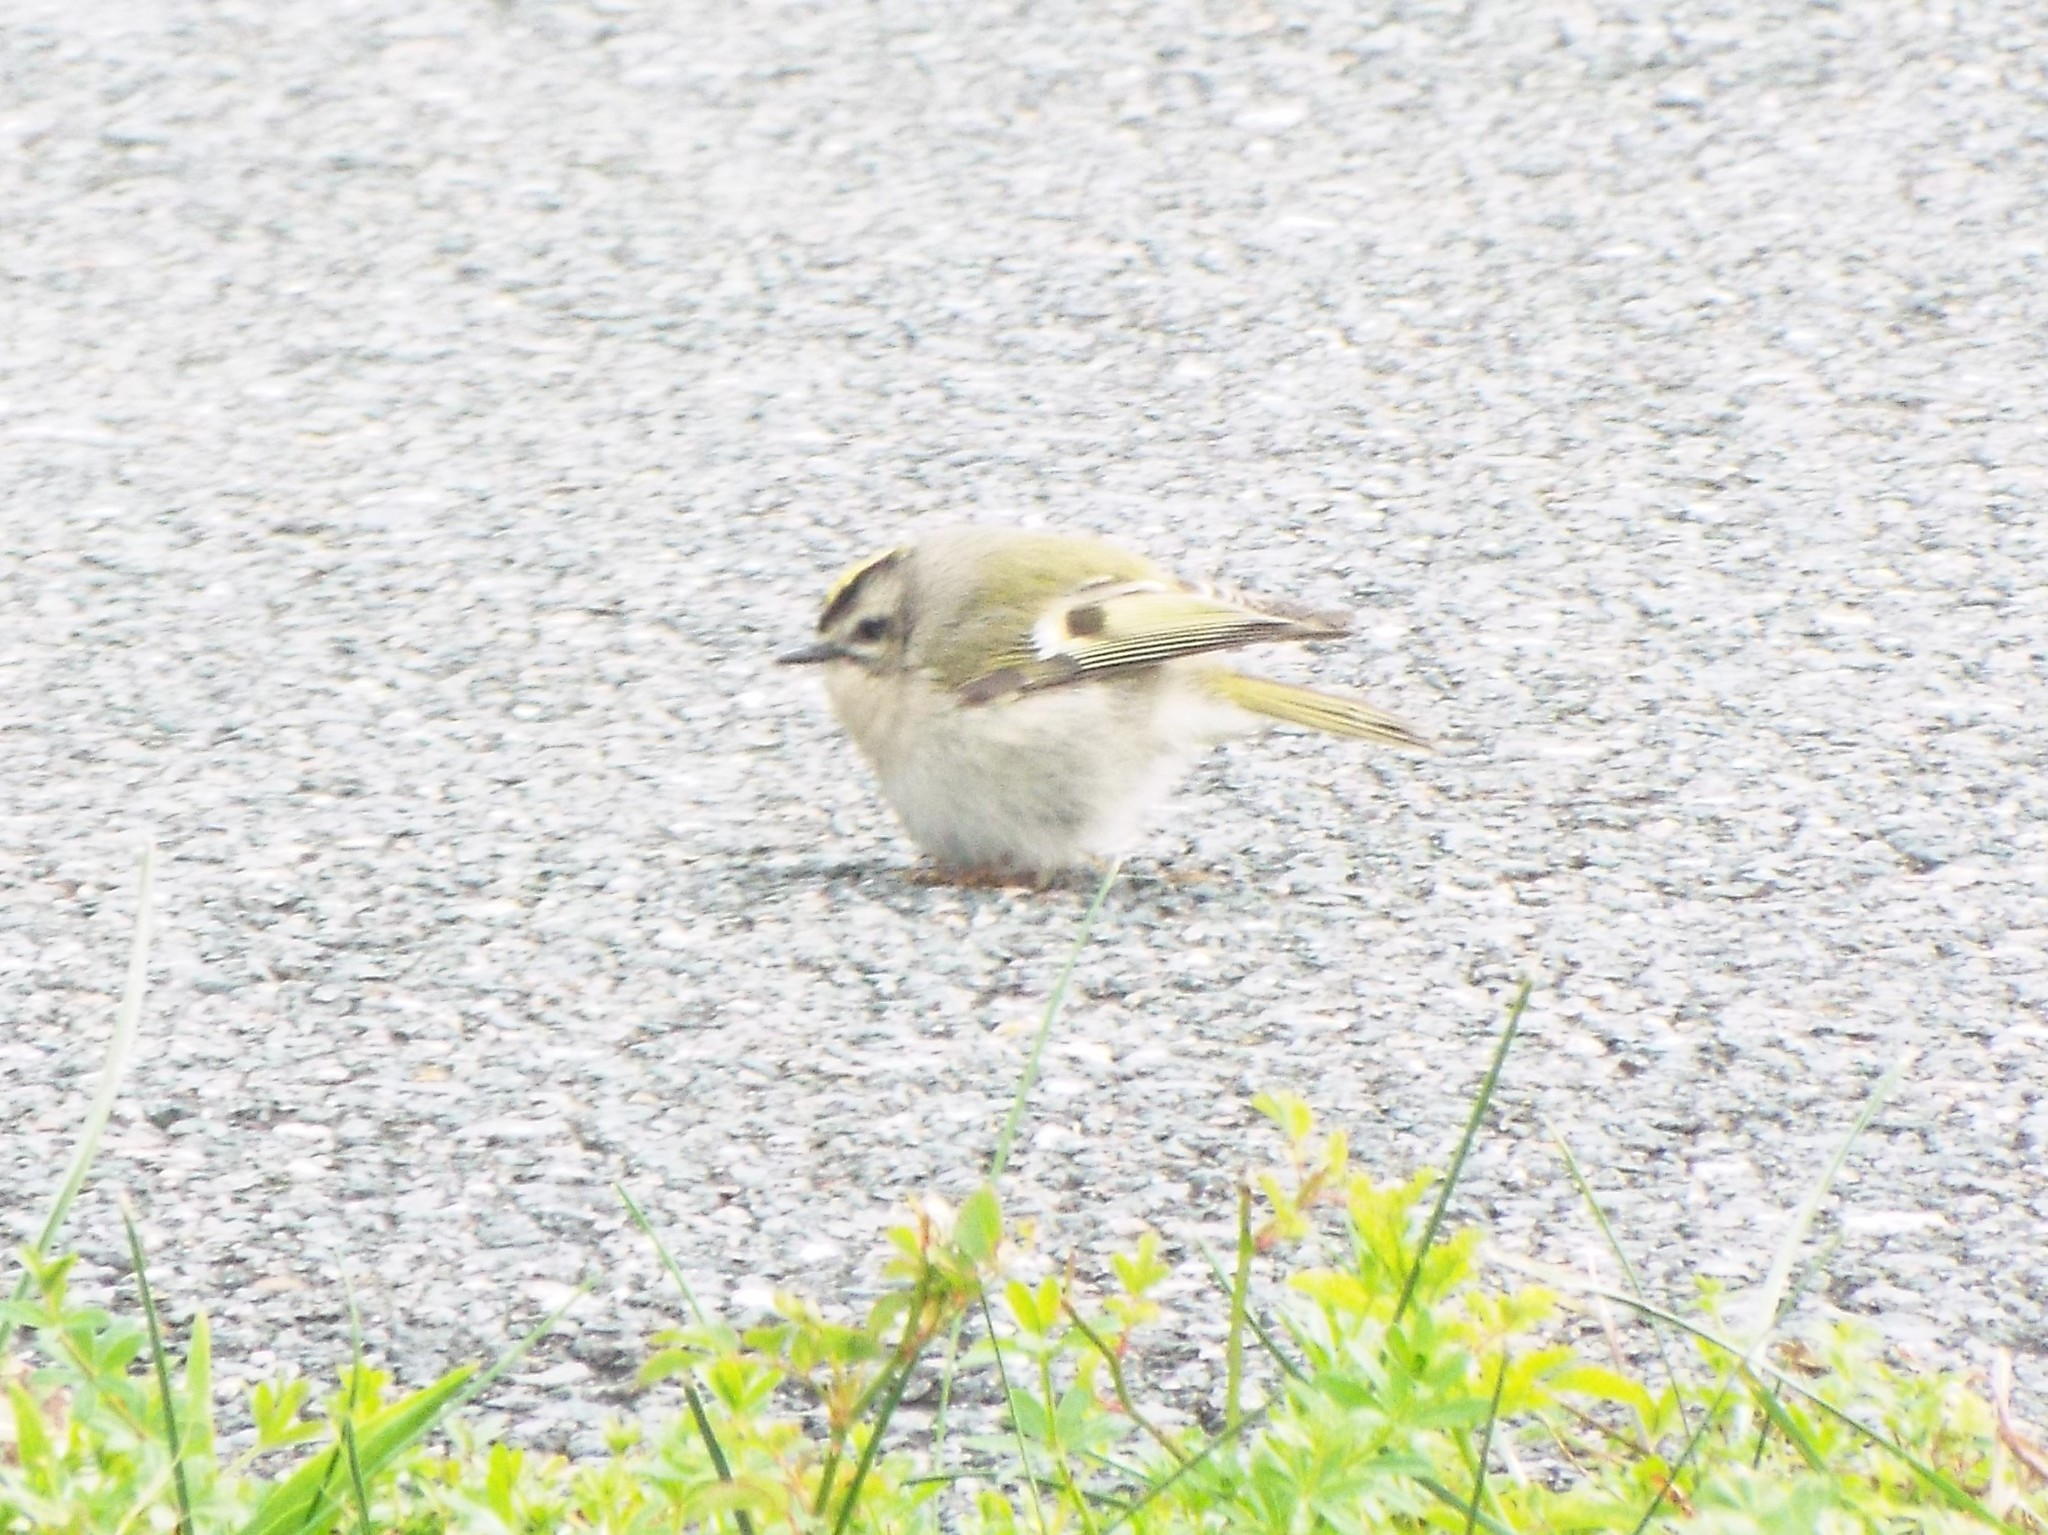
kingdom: Animalia
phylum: Chordata
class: Aves
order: Passeriformes
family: Regulidae
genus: Regulus
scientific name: Regulus satrapa
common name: Golden-crowned kinglet
